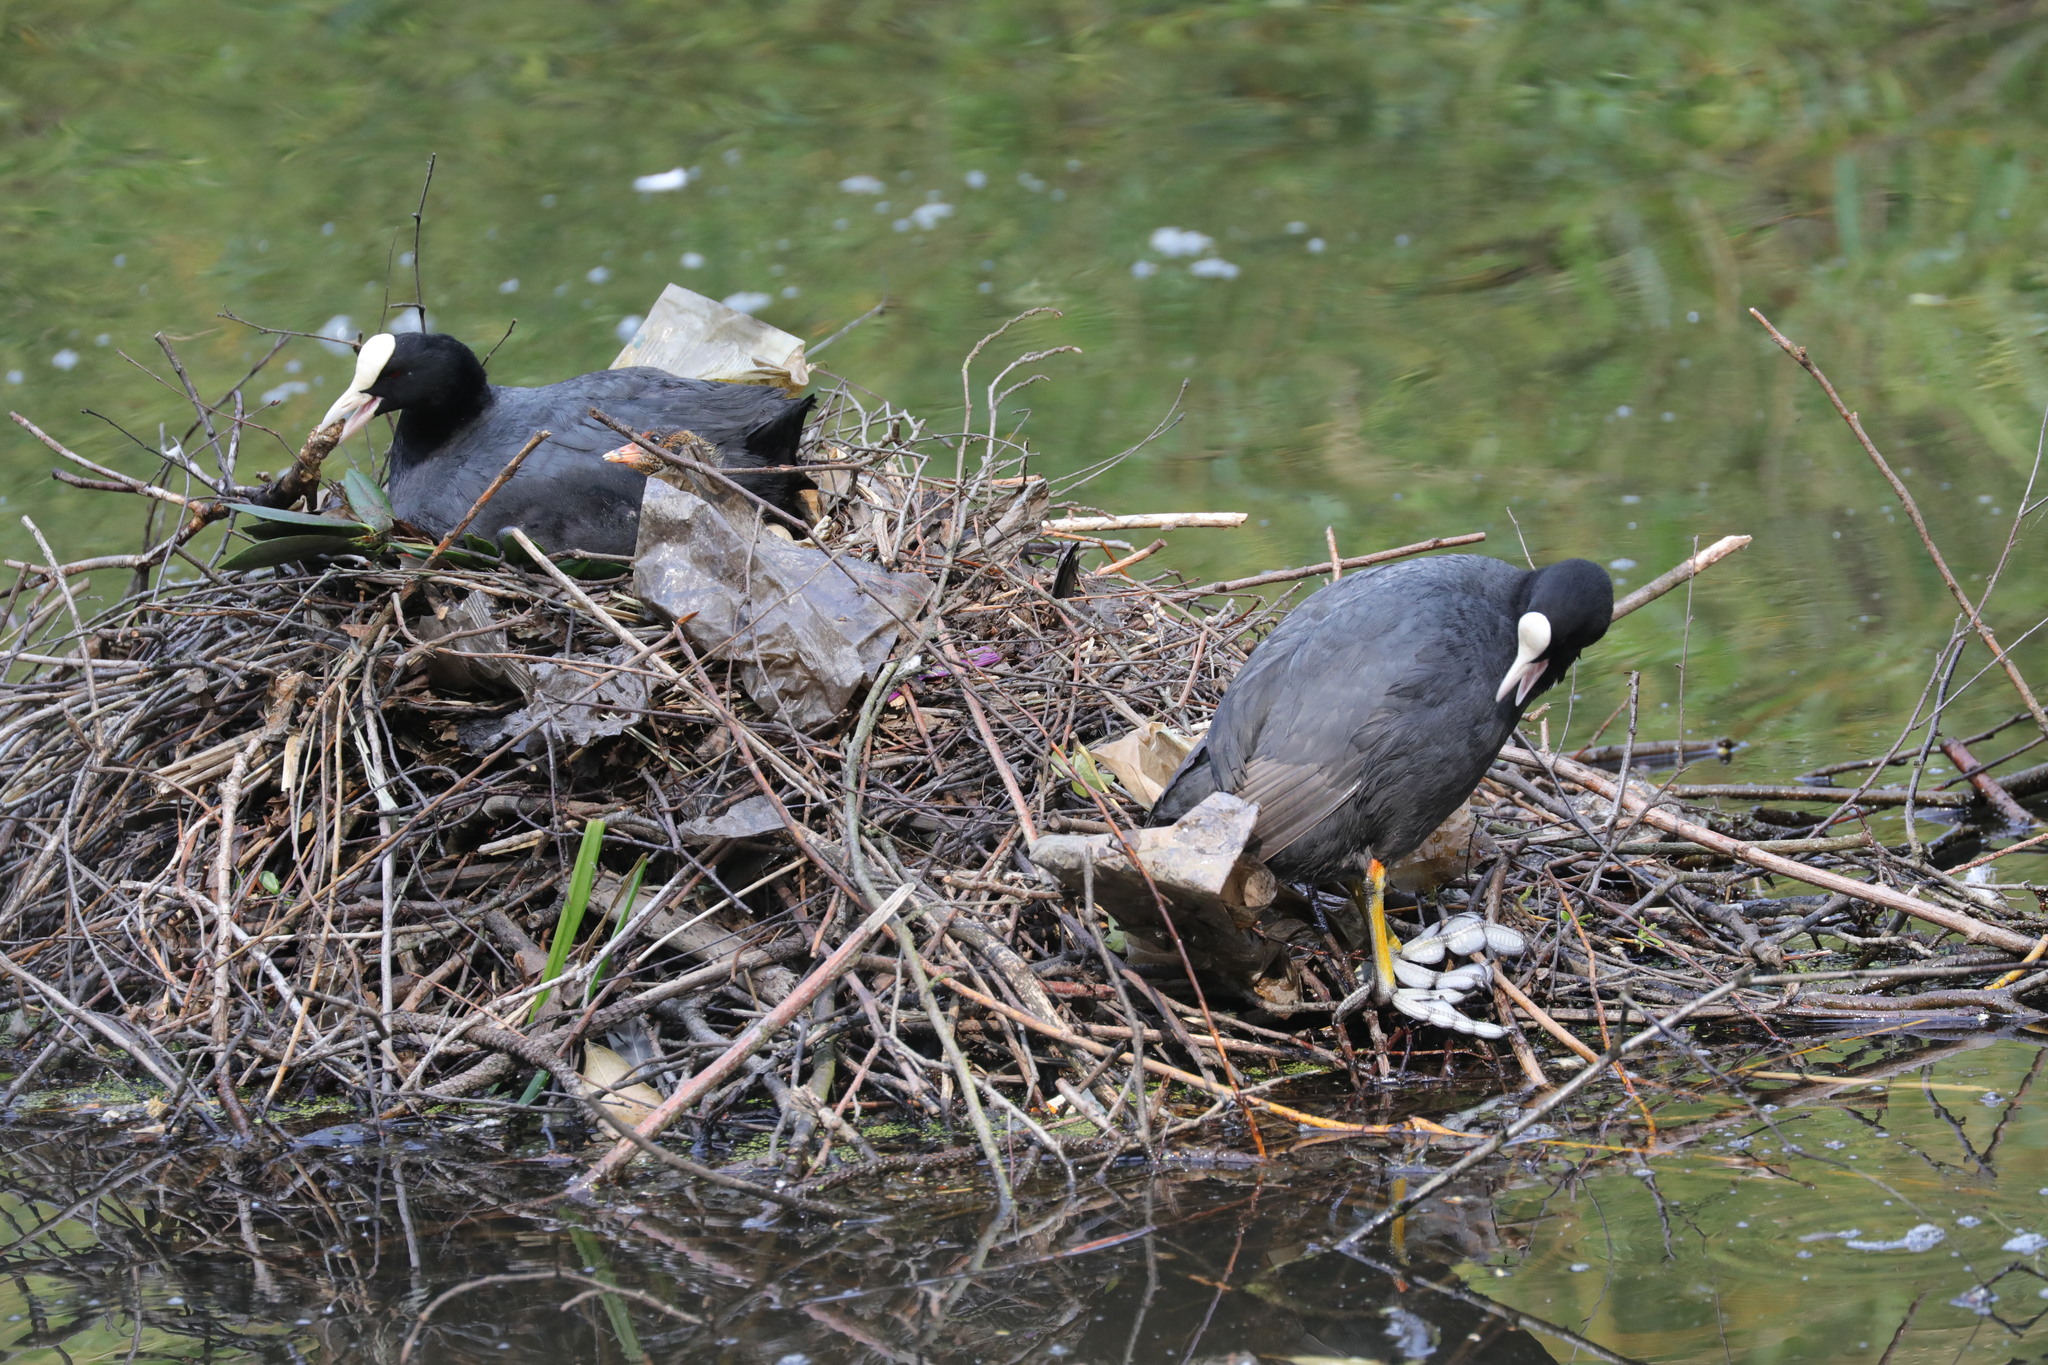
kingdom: Animalia
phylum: Chordata
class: Aves
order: Gruiformes
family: Rallidae
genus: Fulica
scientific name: Fulica atra
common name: Eurasian coot
